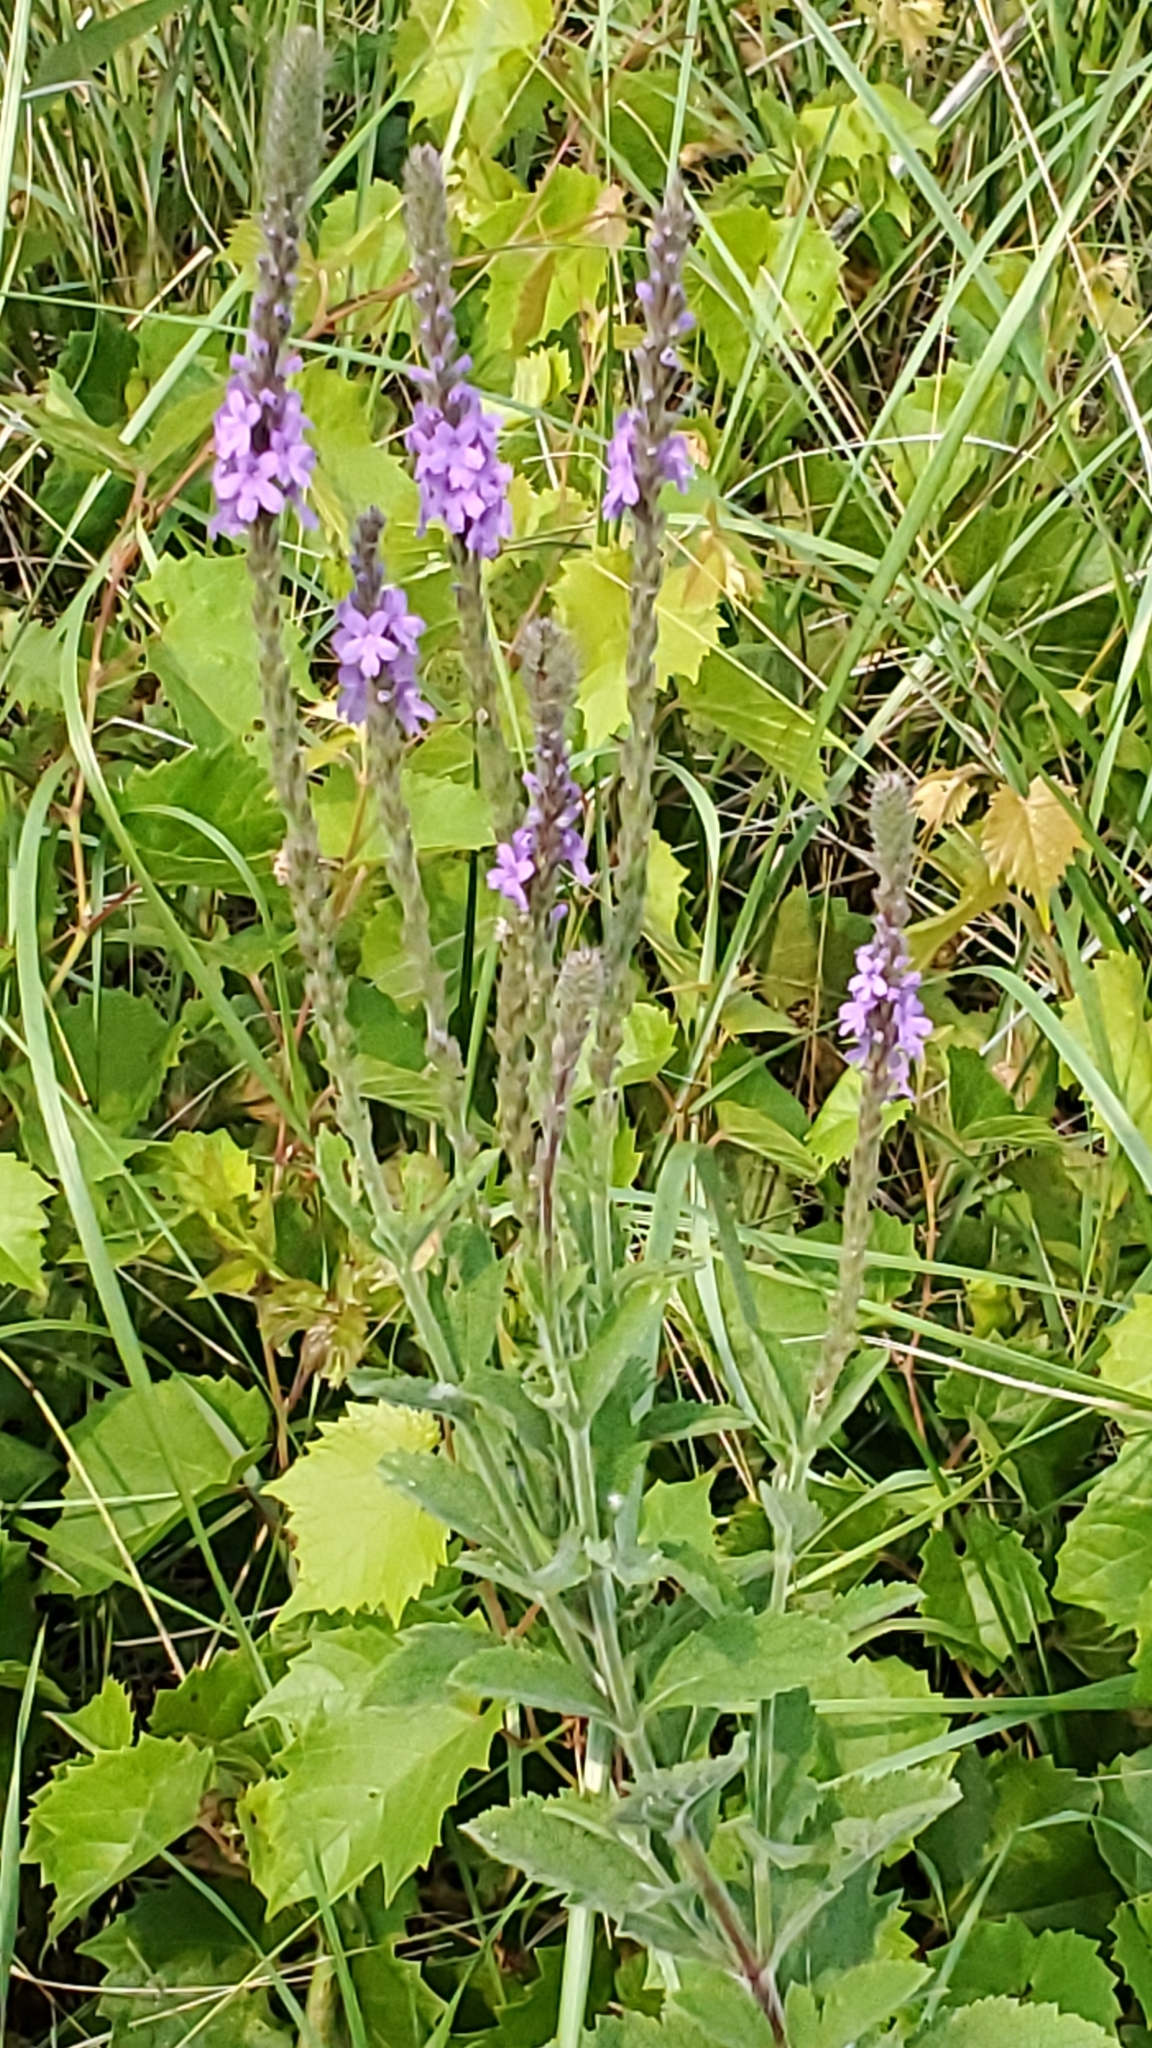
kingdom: Plantae
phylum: Tracheophyta
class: Magnoliopsida
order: Lamiales
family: Verbenaceae
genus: Verbena
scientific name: Verbena stricta
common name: Hoary vervain
